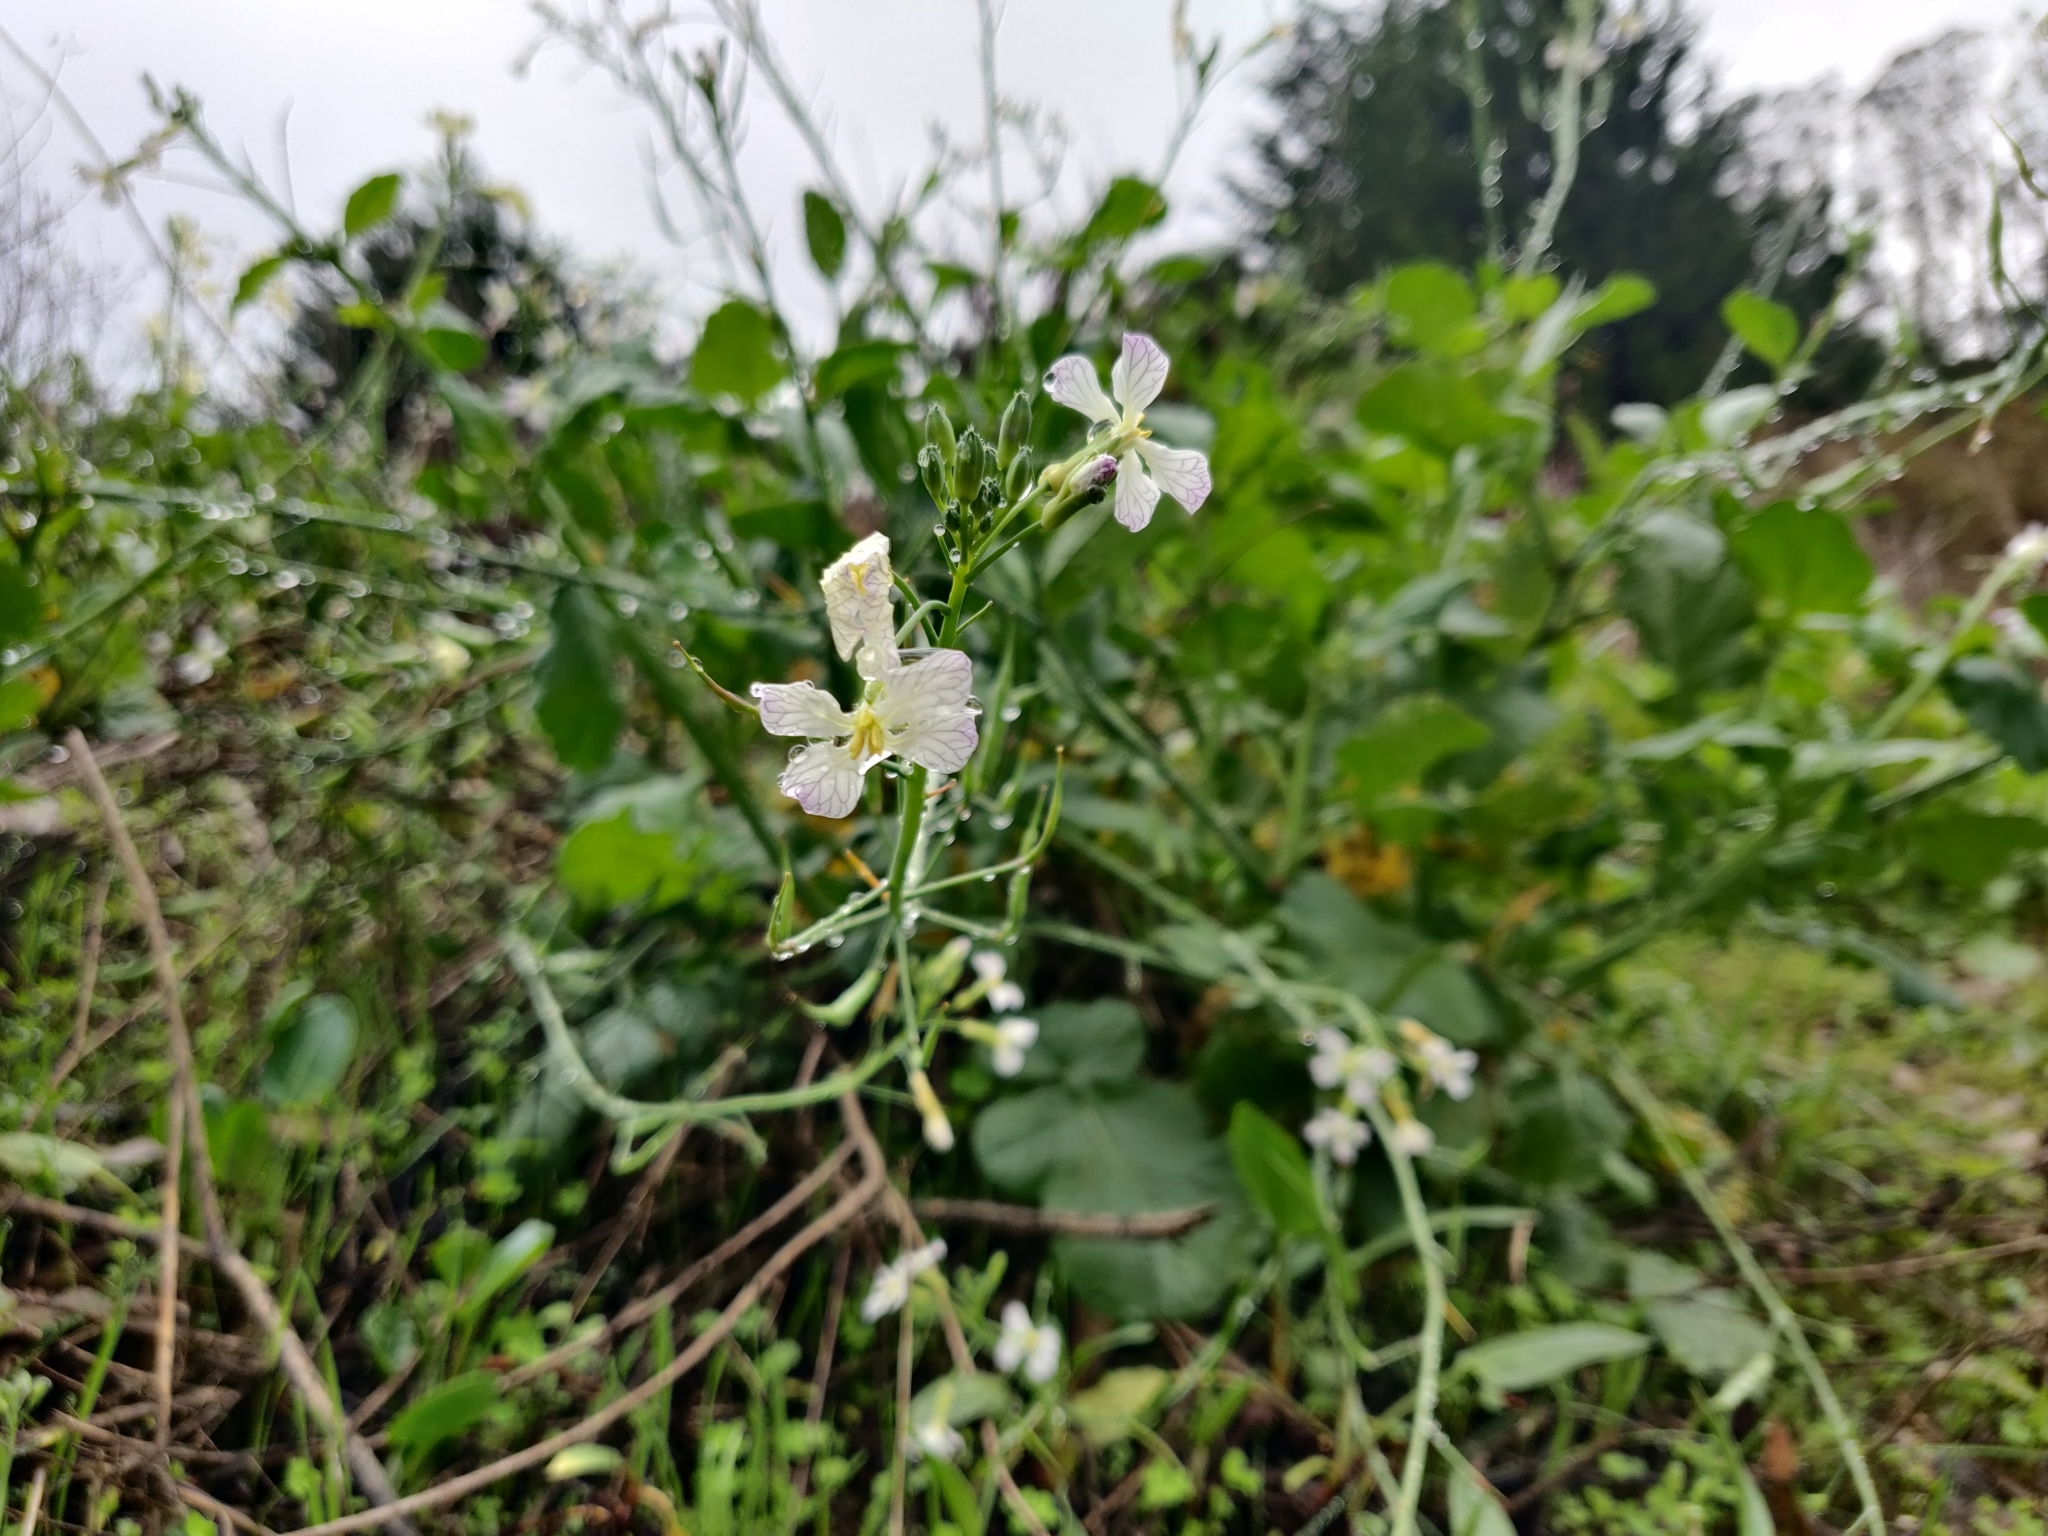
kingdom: Plantae
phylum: Tracheophyta
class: Magnoliopsida
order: Brassicales
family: Brassicaceae
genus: Raphanus
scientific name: Raphanus sativus
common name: Cultivated radish
